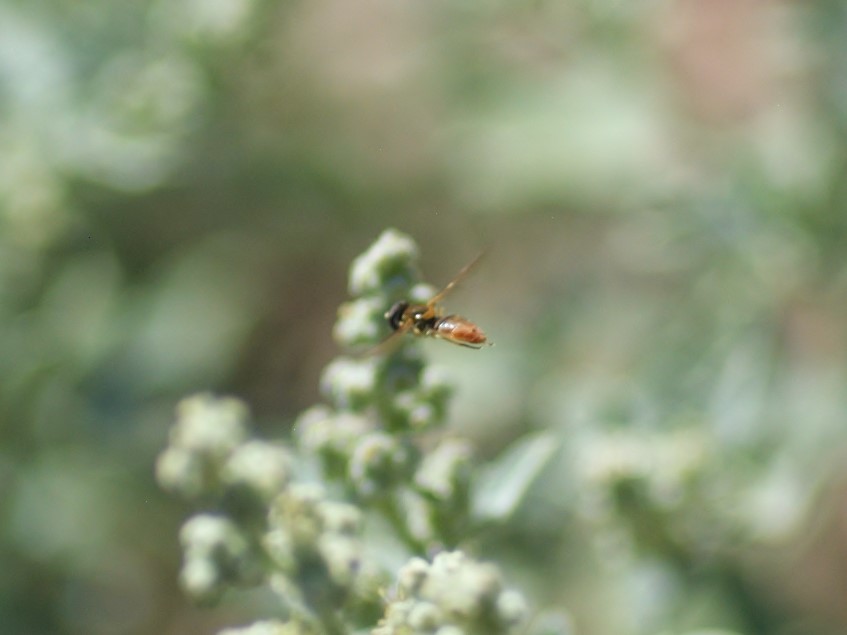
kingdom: Animalia
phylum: Arthropoda
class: Insecta
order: Diptera
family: Syrphidae
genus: Toxomerus
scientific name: Toxomerus marginatus
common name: Syrphid fly
